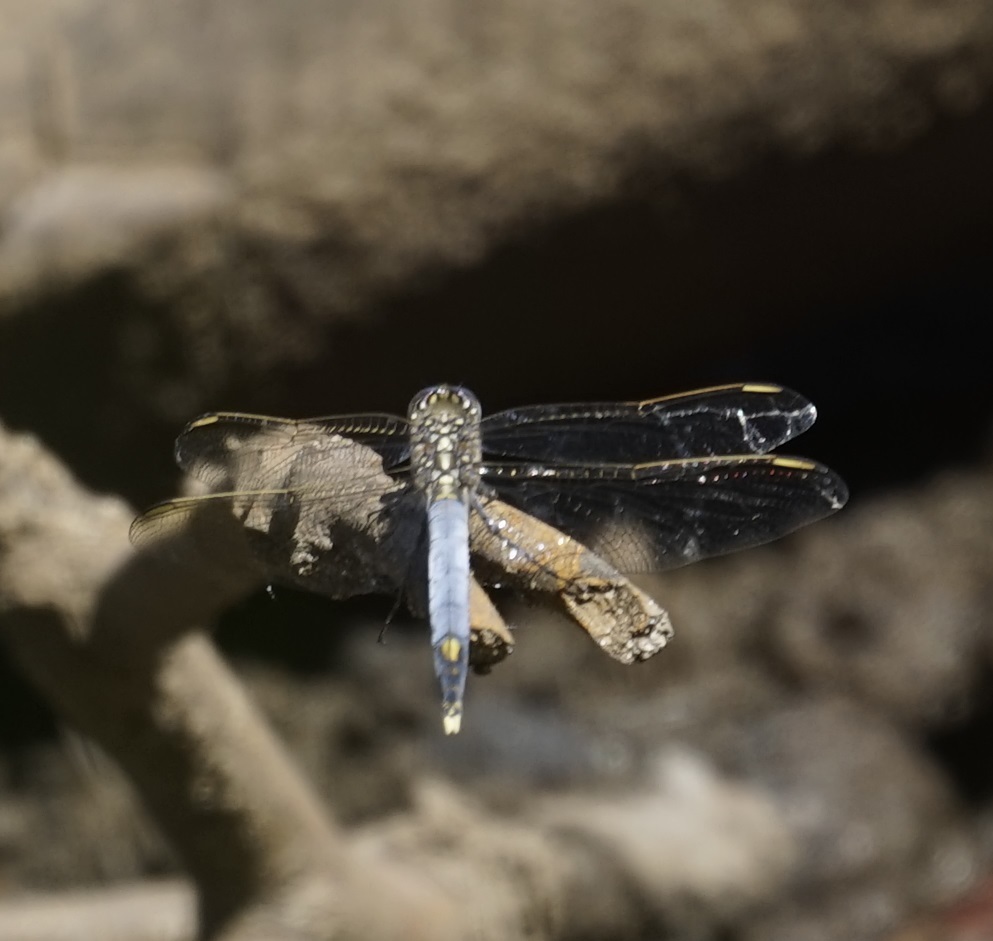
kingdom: Animalia
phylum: Arthropoda
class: Insecta
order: Odonata
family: Libellulidae
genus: Orthetrum
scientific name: Orthetrum caledonicum
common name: Blue skimmer
